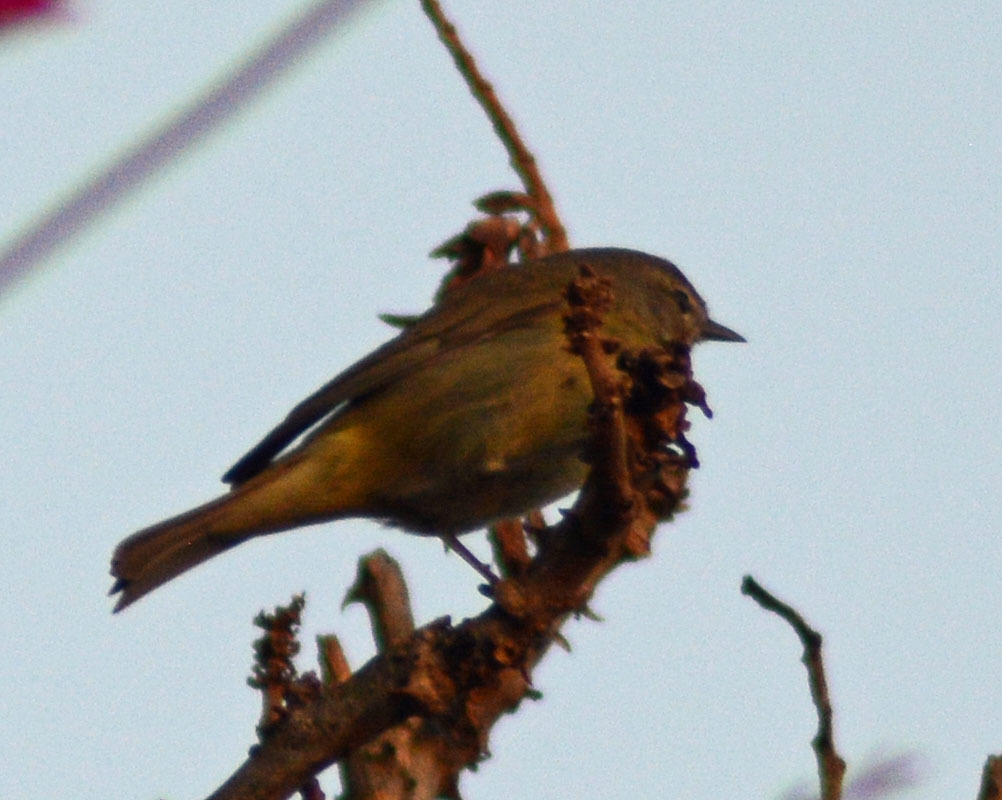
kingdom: Animalia
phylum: Chordata
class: Aves
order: Passeriformes
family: Parulidae
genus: Leiothlypis
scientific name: Leiothlypis celata
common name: Orange-crowned warbler
